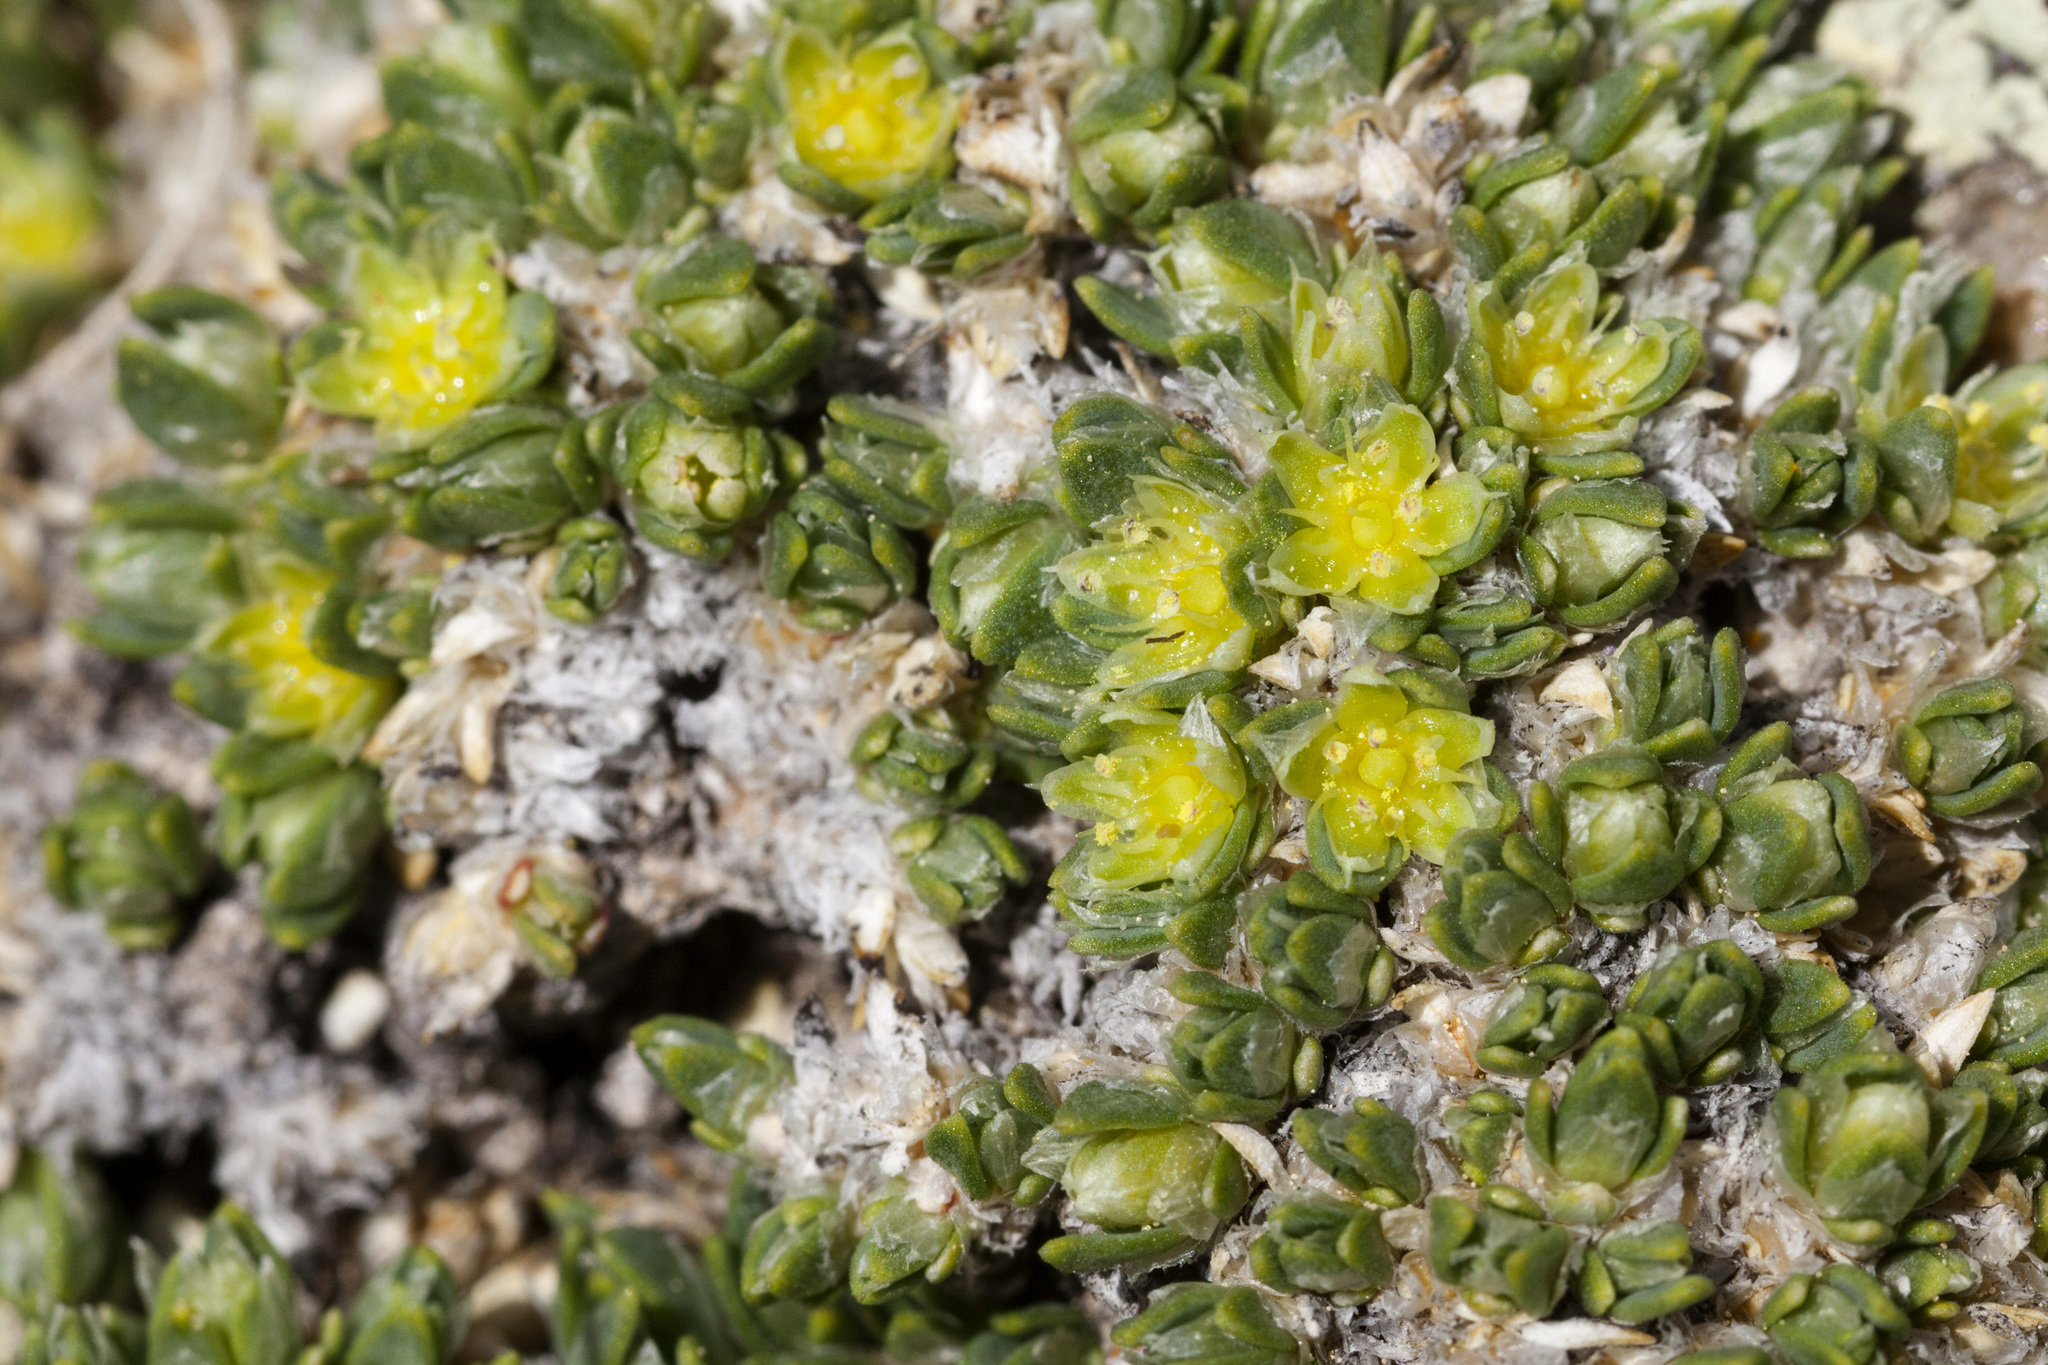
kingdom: Plantae
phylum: Tracheophyta
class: Magnoliopsida
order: Caryophyllales
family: Caryophyllaceae
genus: Paronychia
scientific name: Paronychia pulvinata
